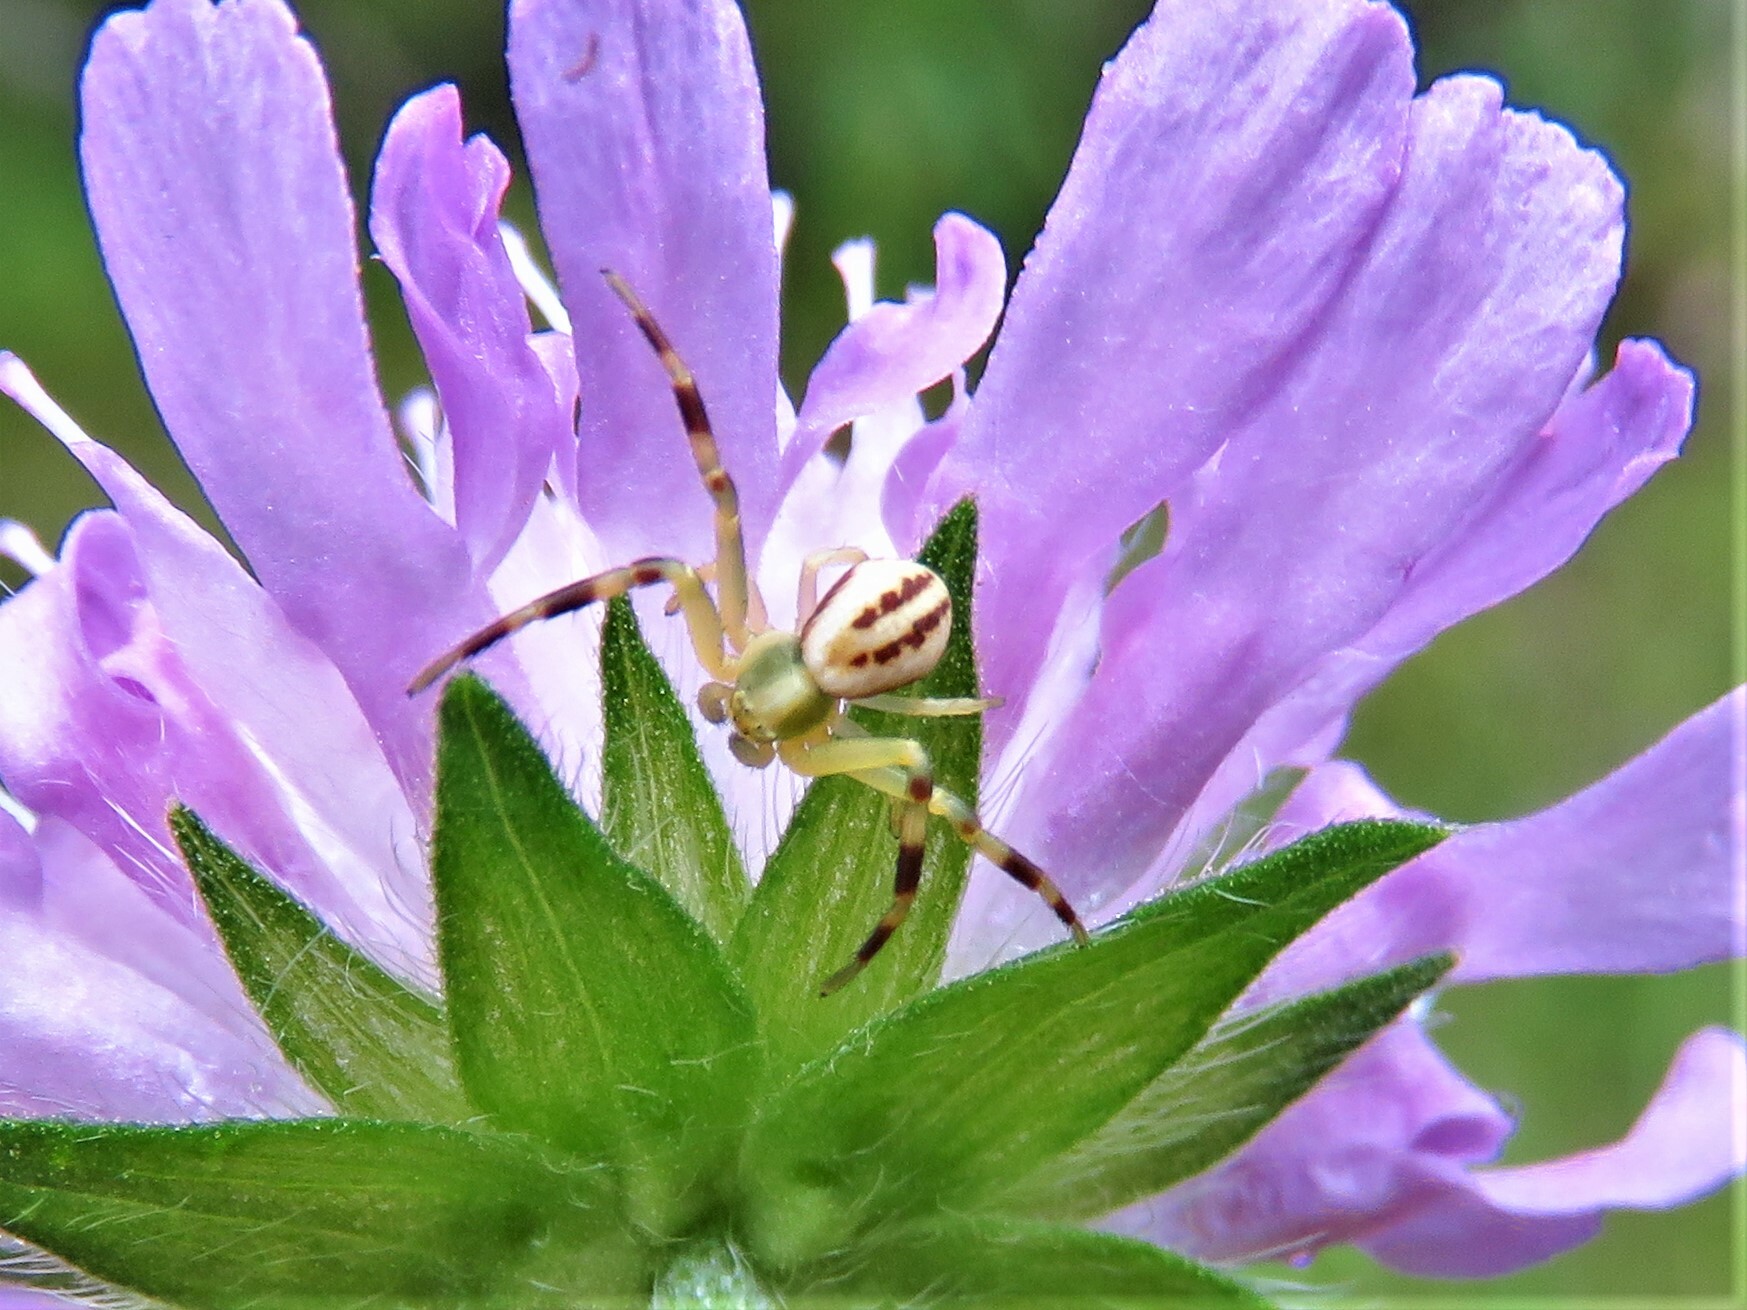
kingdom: Animalia
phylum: Arthropoda
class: Arachnida
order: Araneae
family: Thomisidae
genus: Misumena
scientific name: Misumena vatia
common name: Goldenrod crab spider
